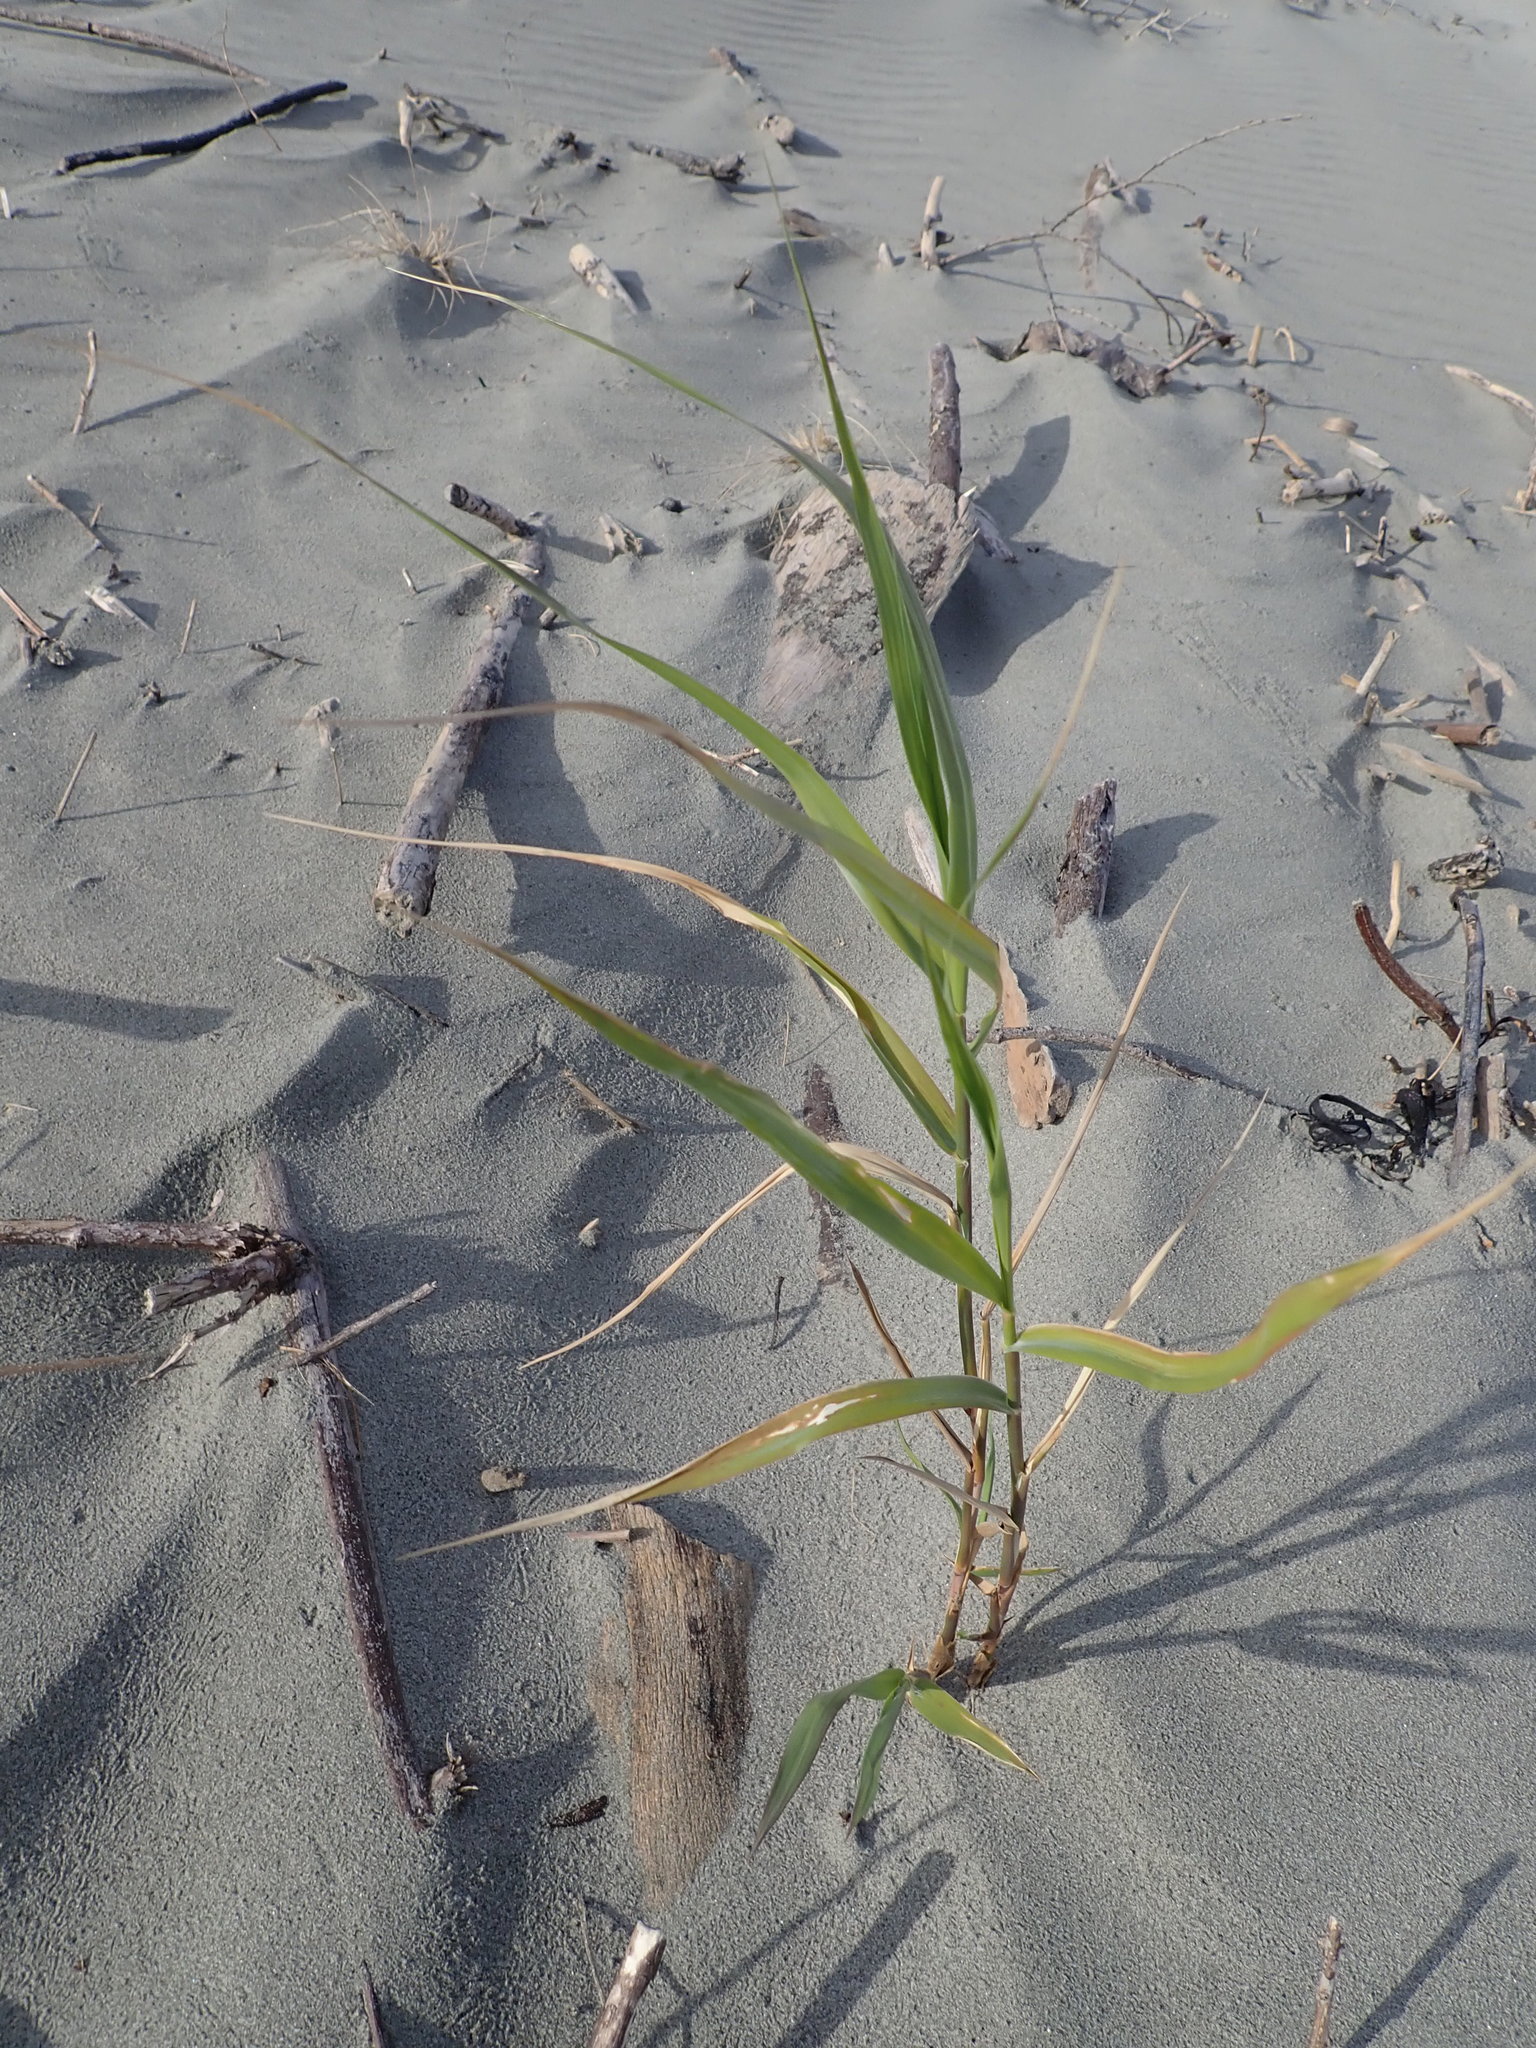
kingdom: Plantae
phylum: Tracheophyta
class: Liliopsida
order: Poales
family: Poaceae
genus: Phragmites
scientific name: Phragmites karka
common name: Tropical reed
